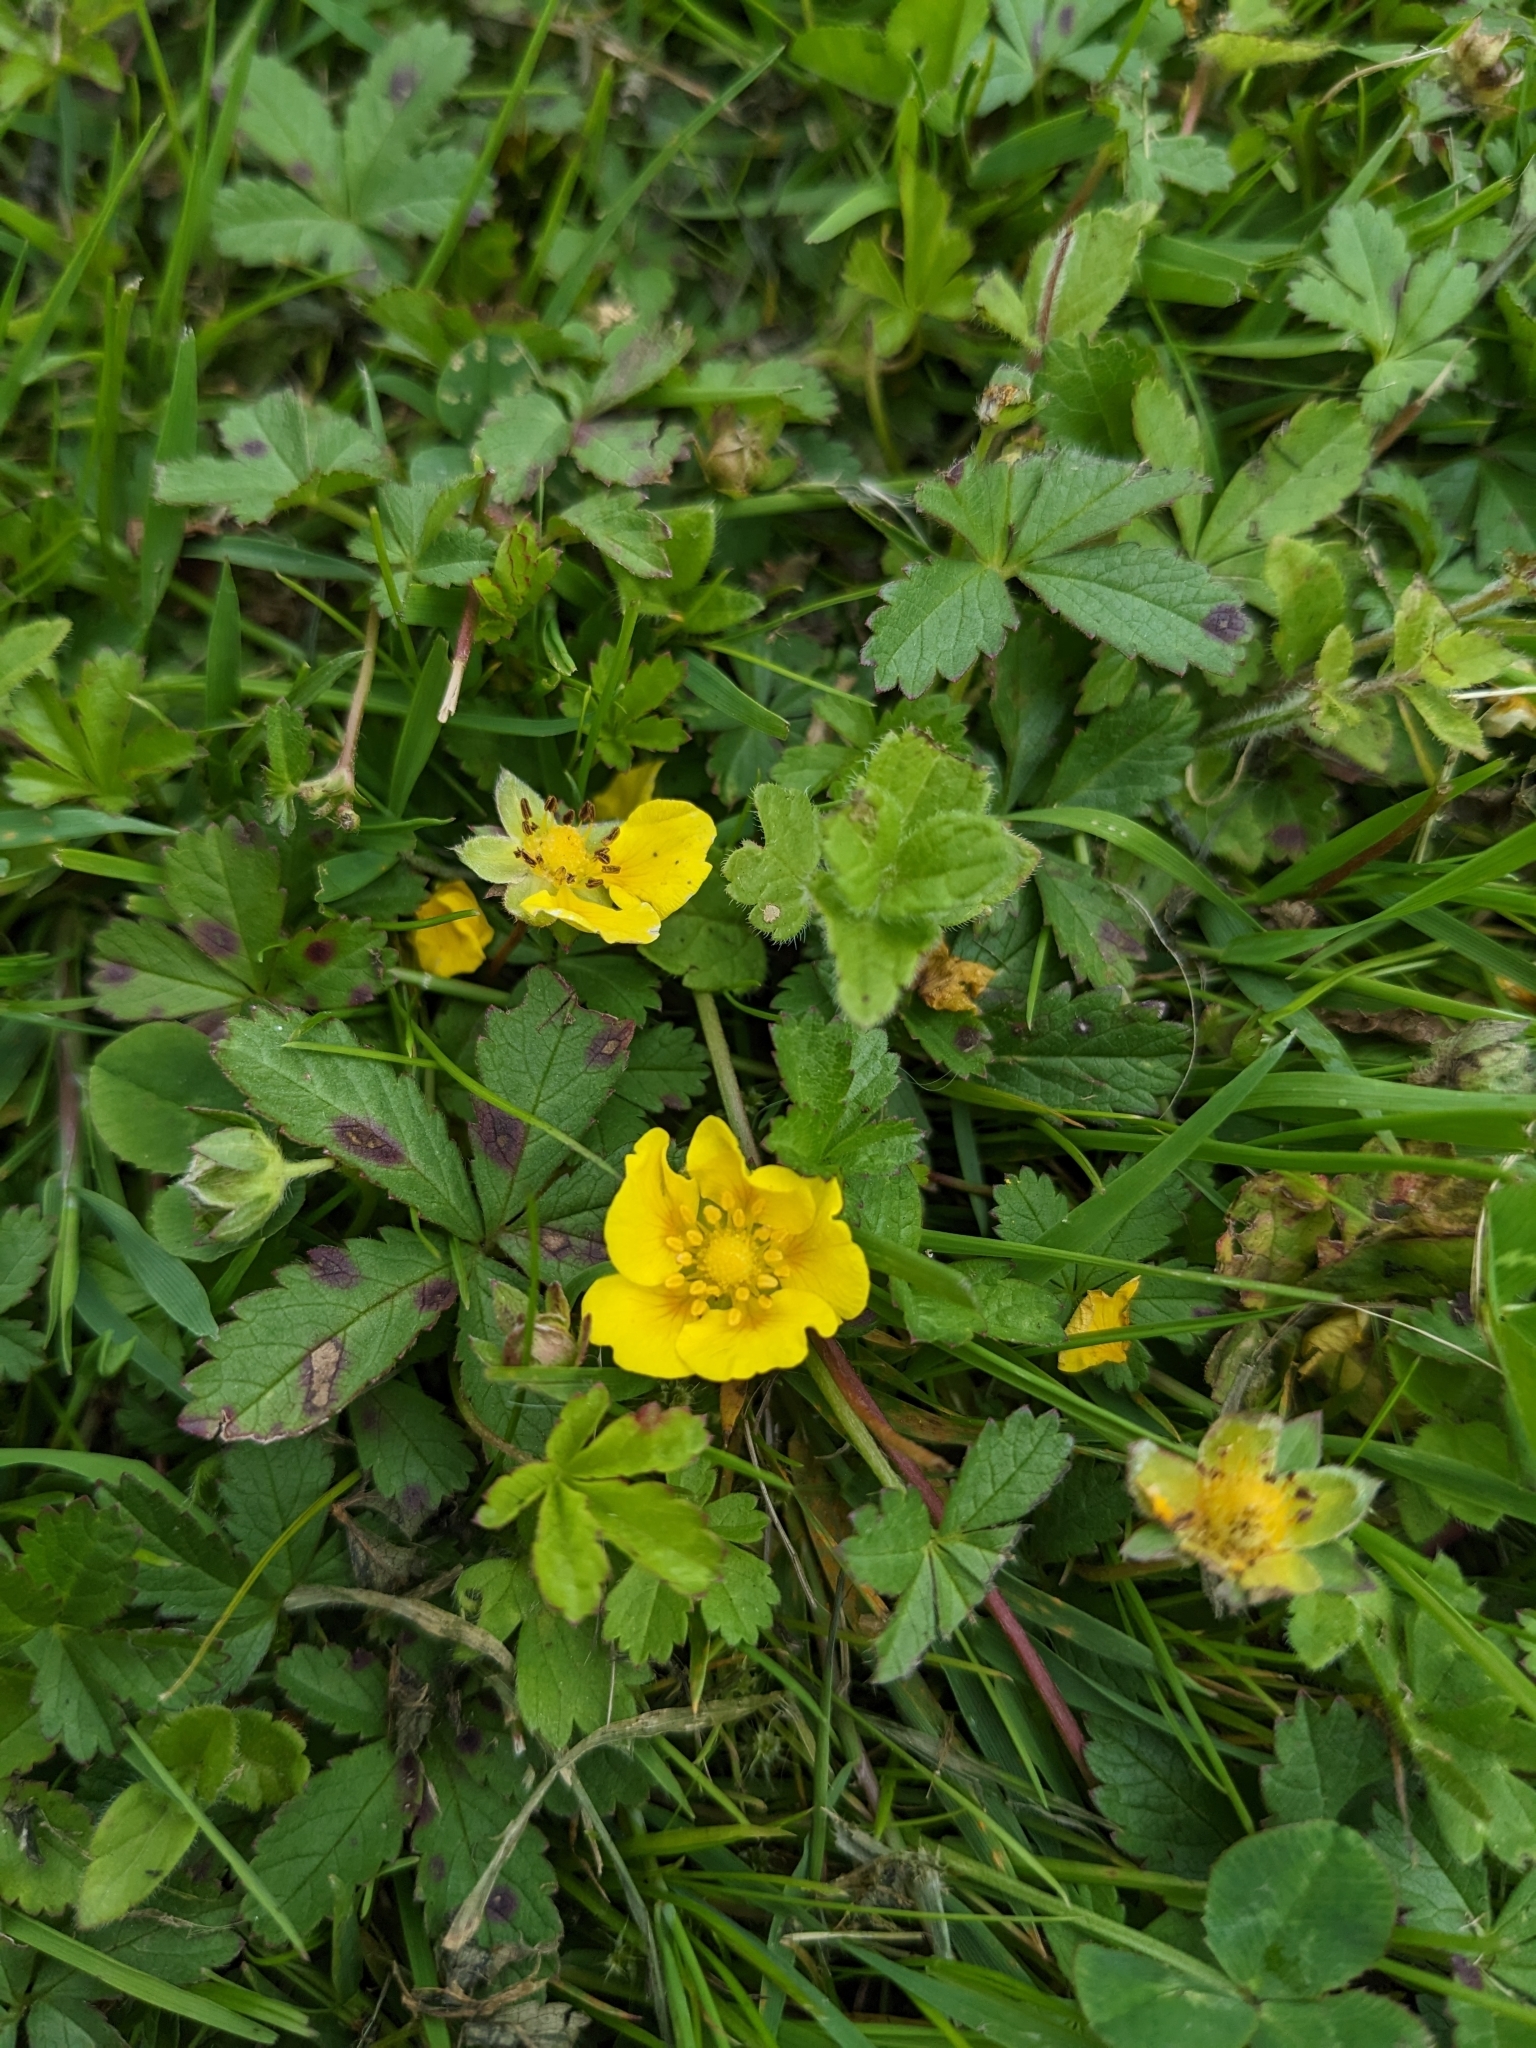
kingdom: Plantae
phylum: Tracheophyta
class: Magnoliopsida
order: Rosales
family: Rosaceae
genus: Potentilla
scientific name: Potentilla reptans
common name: Creeping cinquefoil
